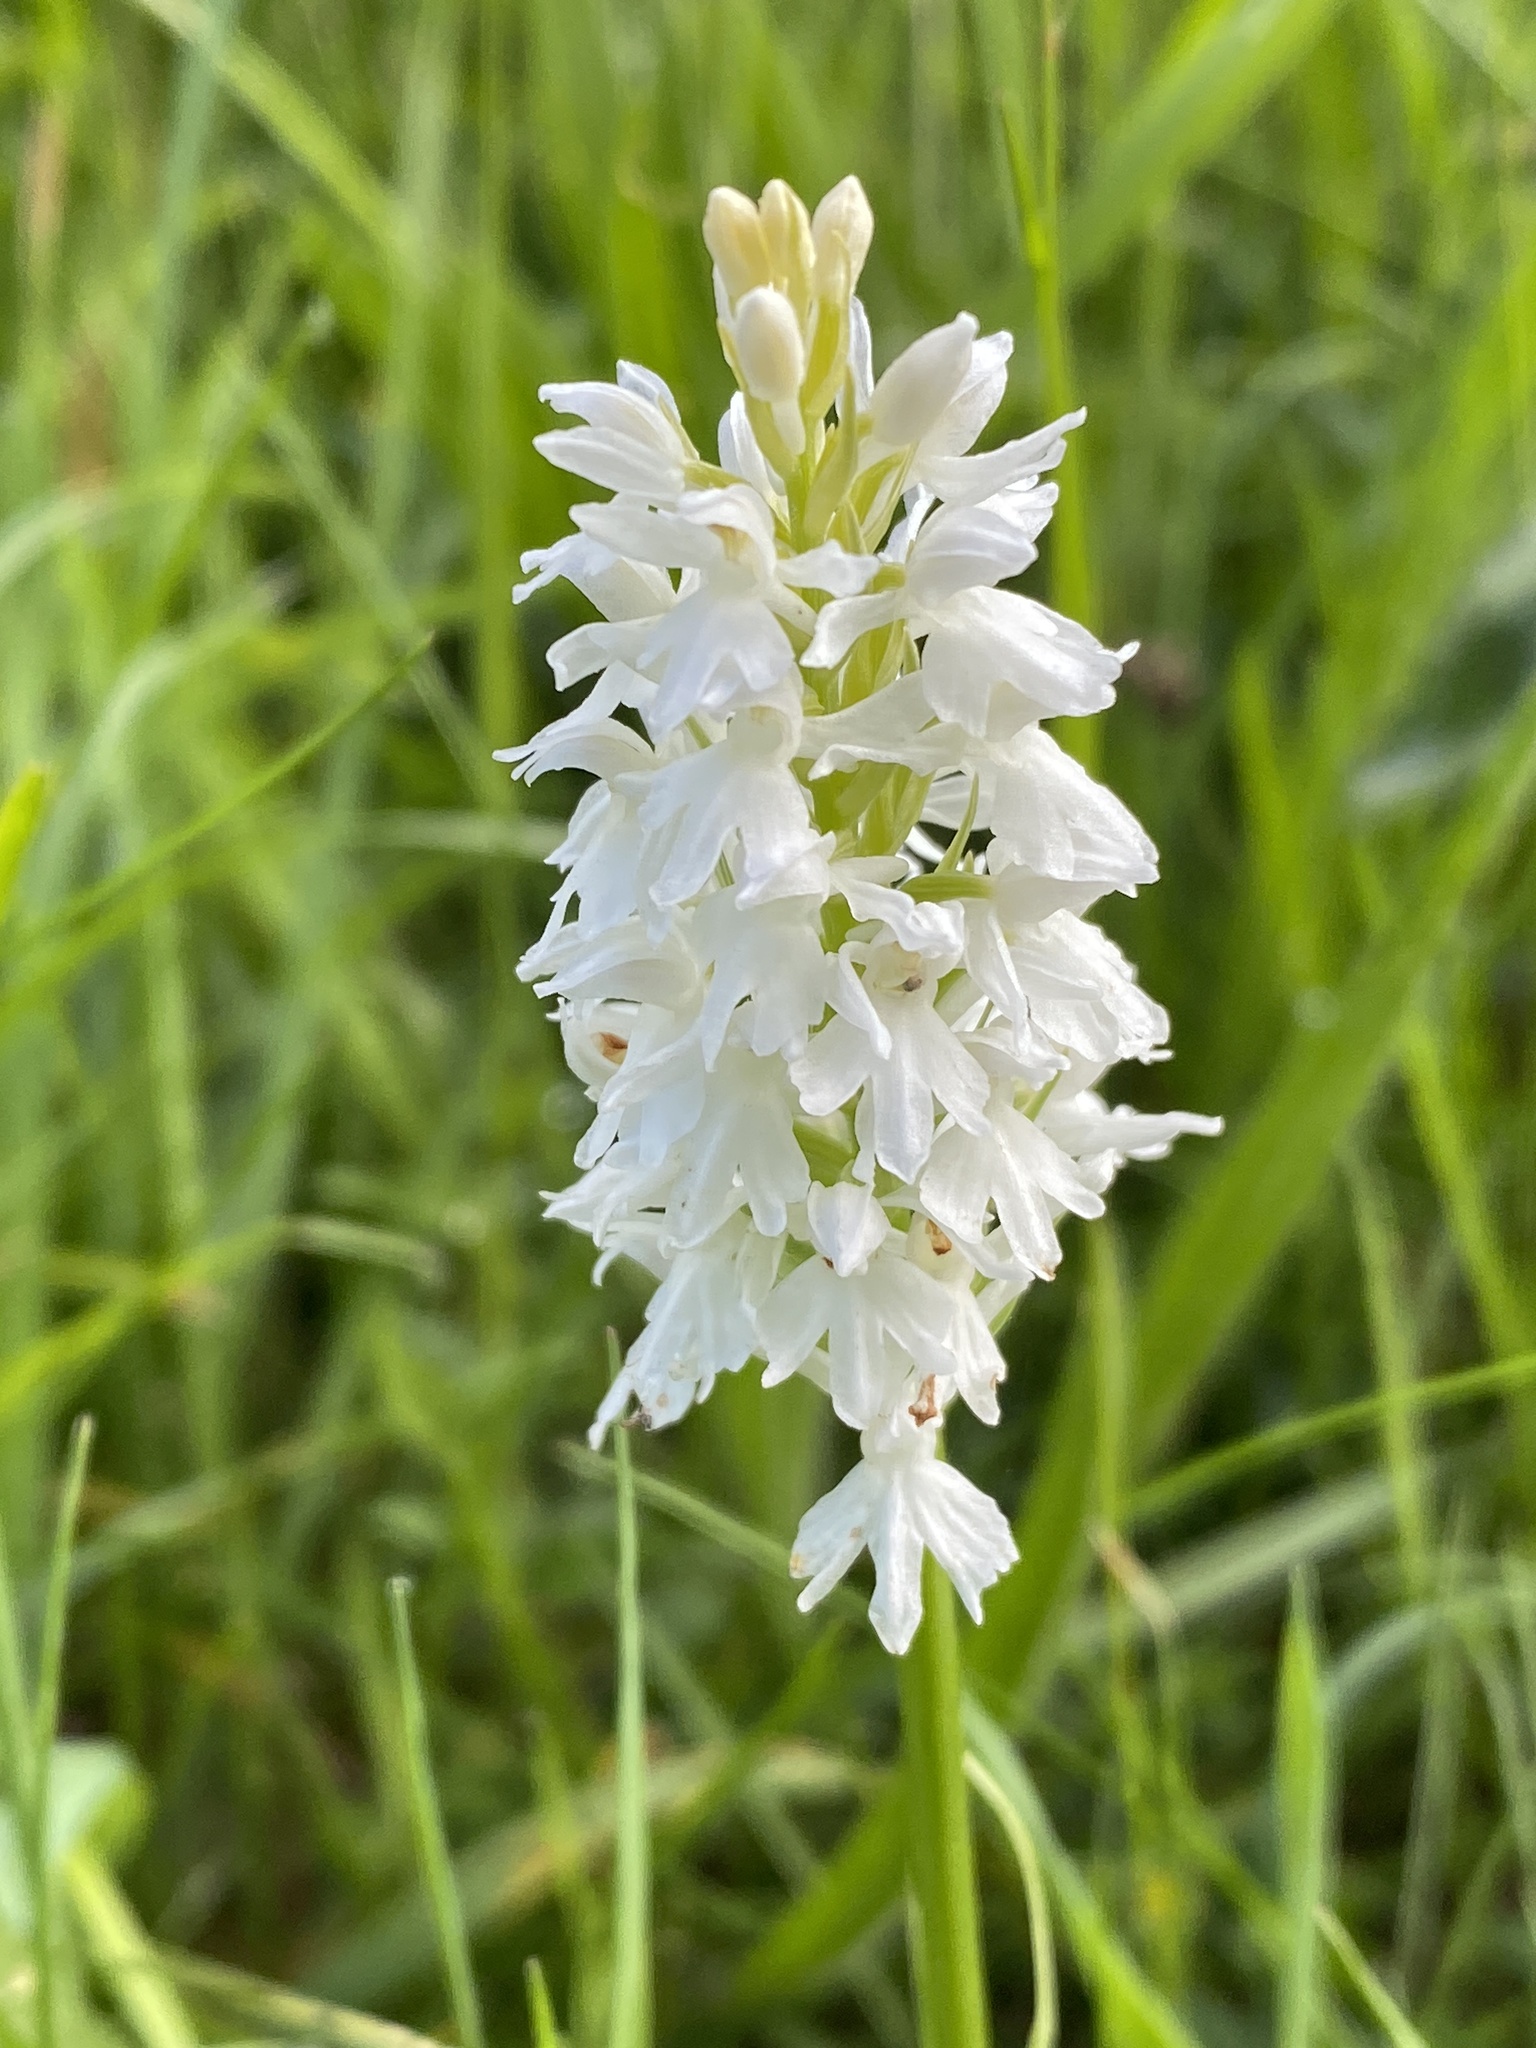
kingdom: Plantae
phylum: Tracheophyta
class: Liliopsida
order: Asparagales
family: Orchidaceae
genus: Dactylorhiza
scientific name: Dactylorhiza maculata
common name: Heath spotted-orchid
